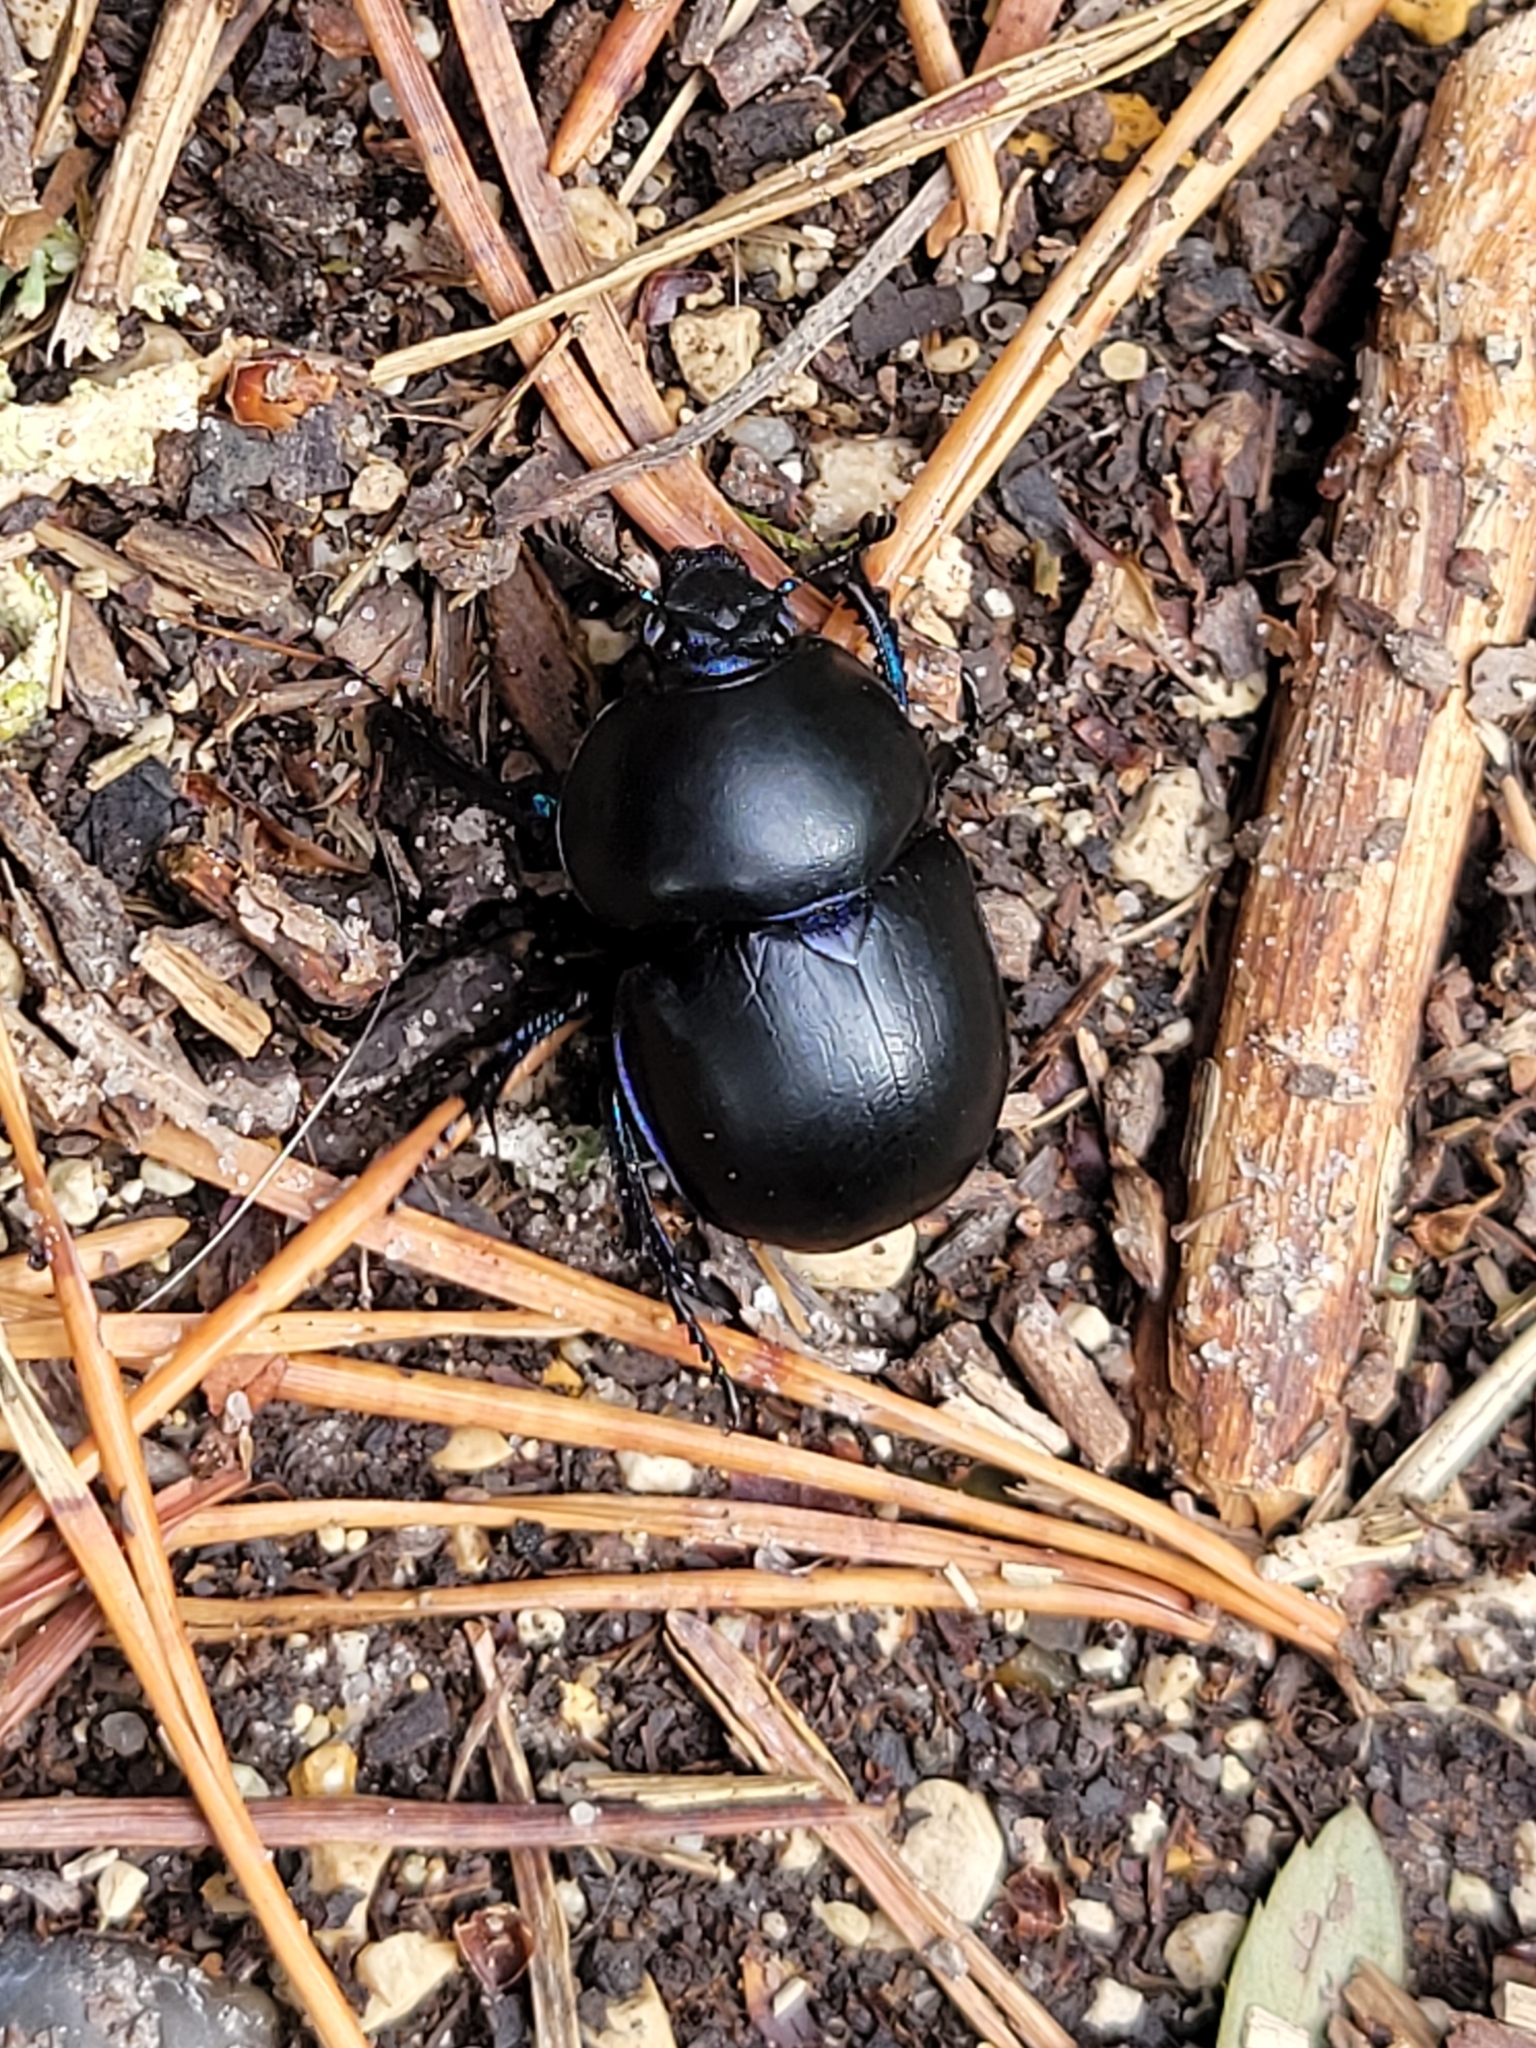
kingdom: Animalia
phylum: Arthropoda
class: Insecta
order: Coleoptera
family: Geotrupidae
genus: Trypocopris
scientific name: Trypocopris vernalis
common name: Spring dumbledor
